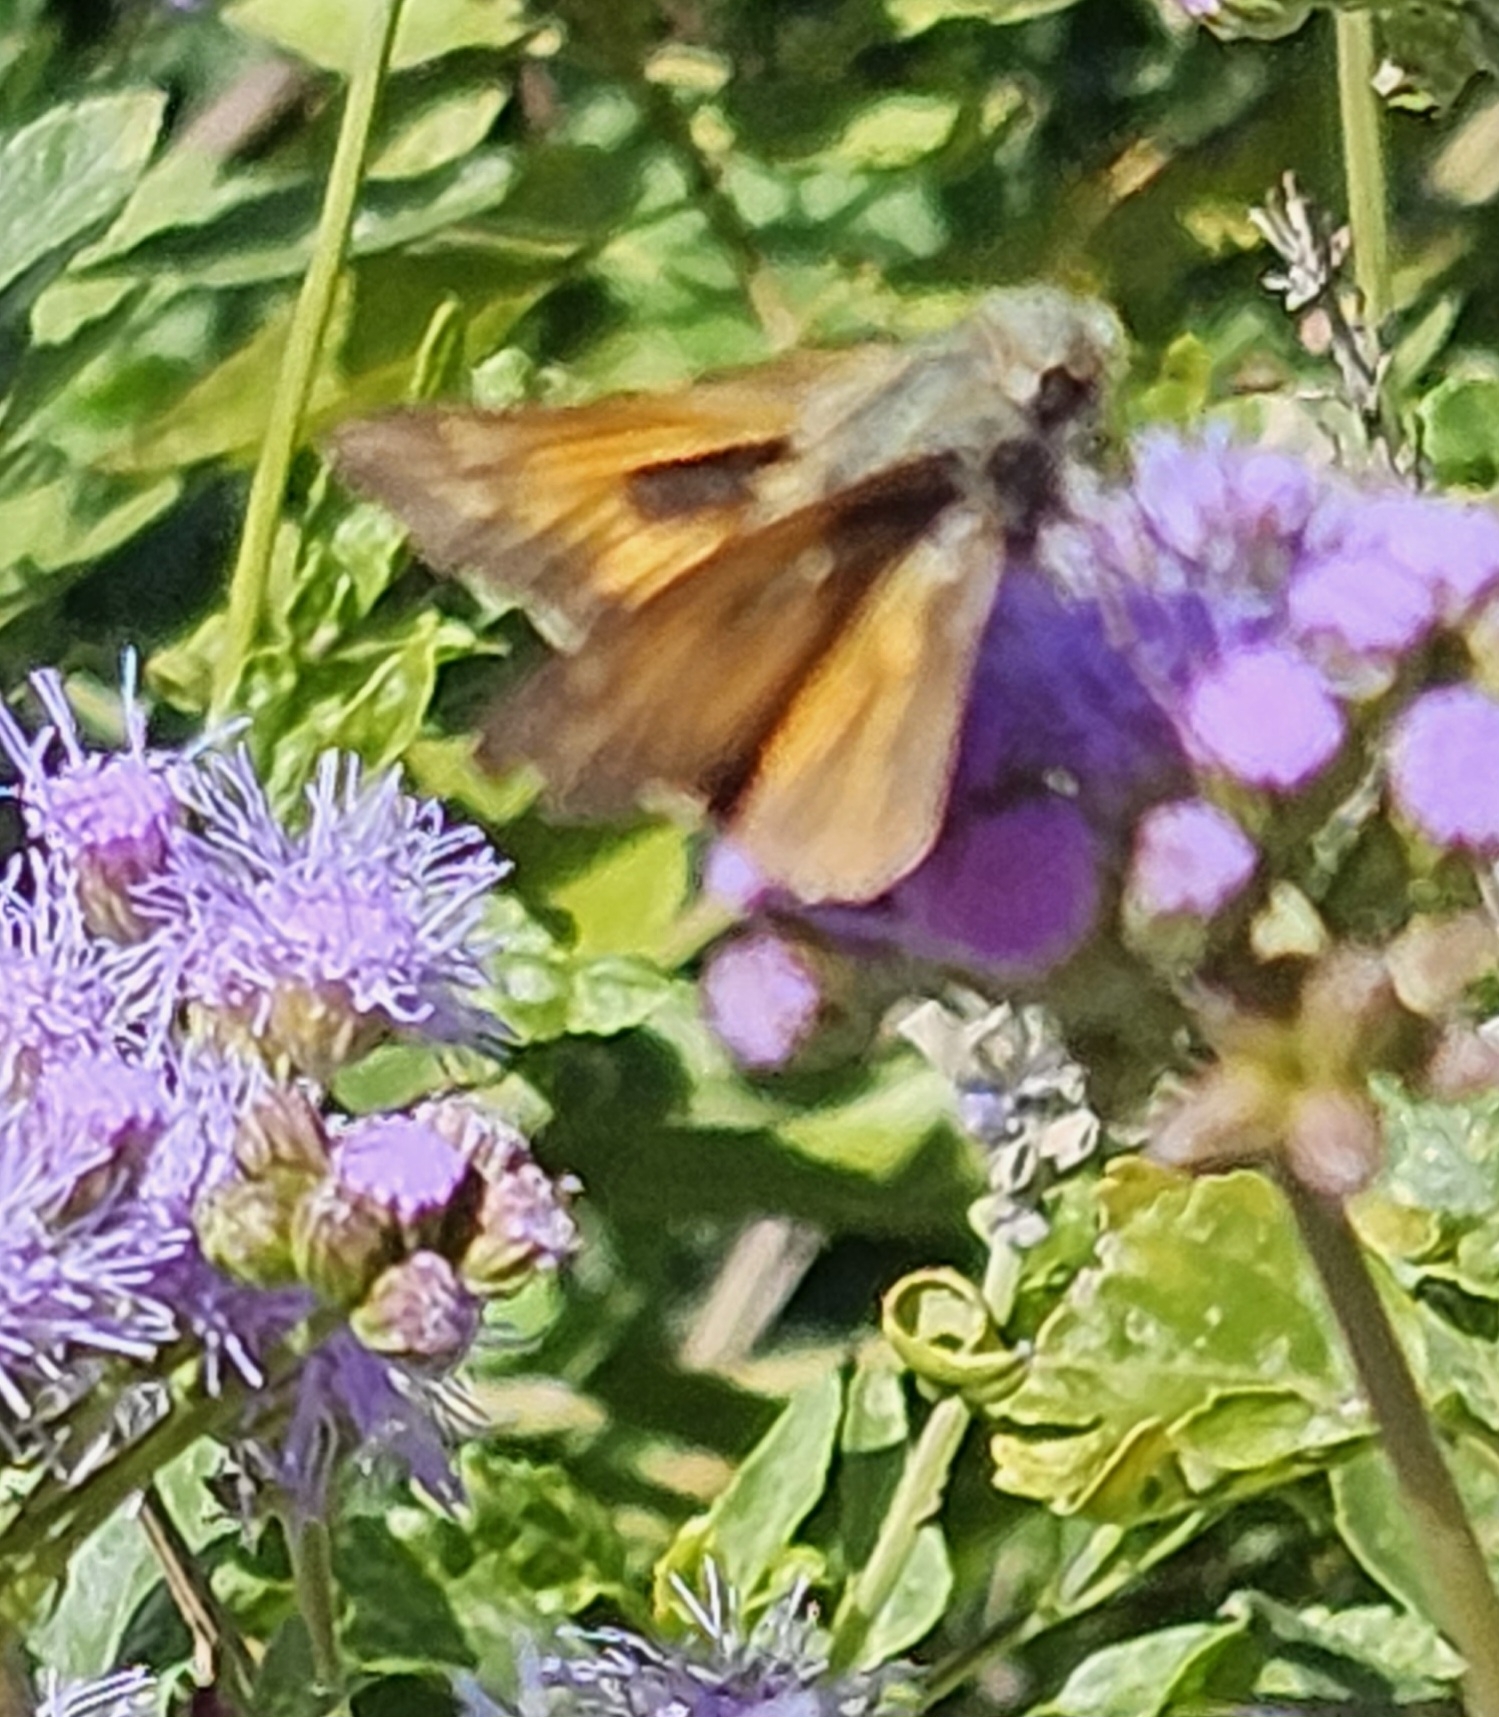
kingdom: Animalia
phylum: Arthropoda
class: Insecta
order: Lepidoptera
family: Hesperiidae
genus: Atalopedes
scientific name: Atalopedes
